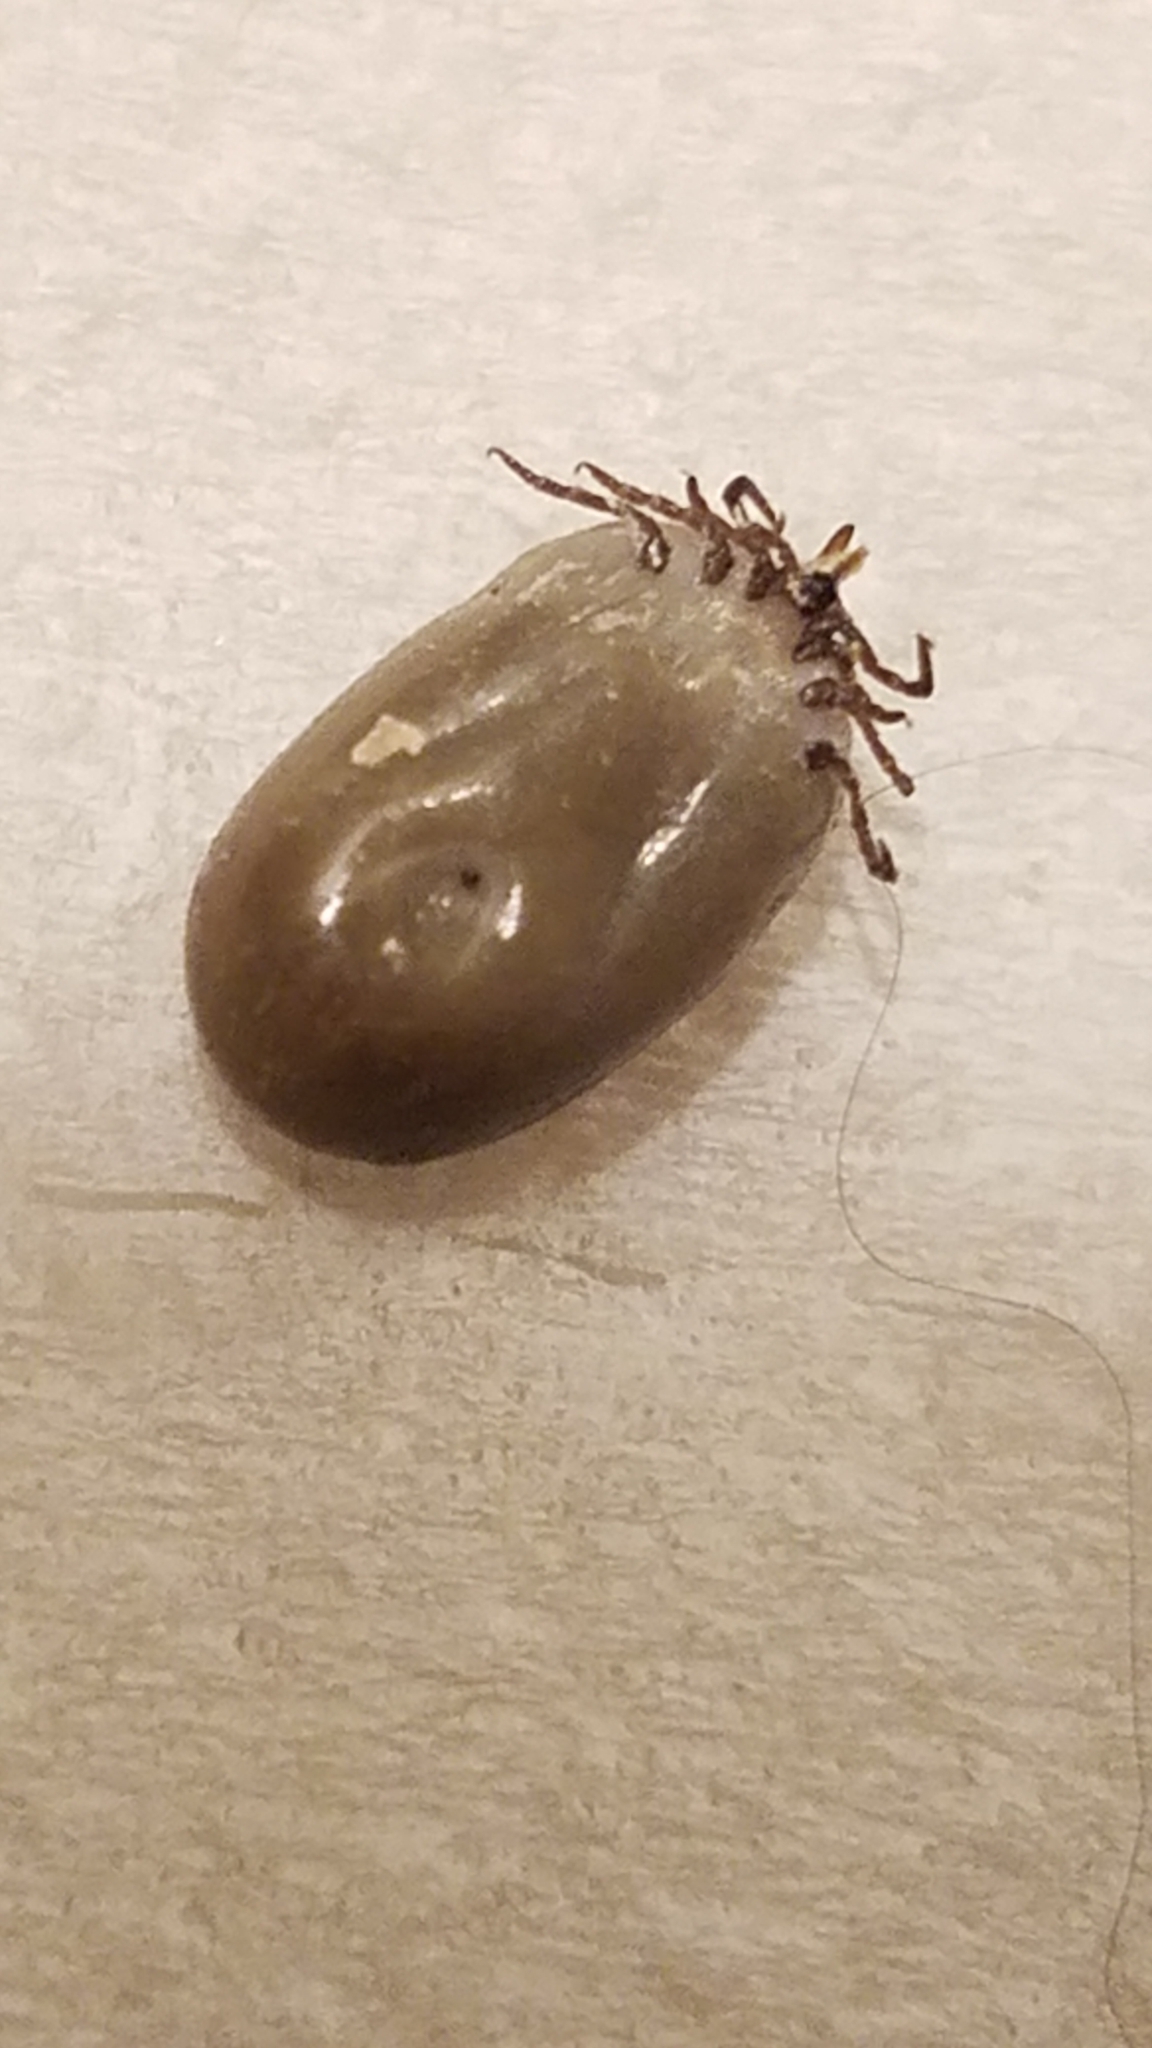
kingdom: Animalia
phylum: Arthropoda
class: Arachnida
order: Ixodida
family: Ixodidae
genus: Ixodes
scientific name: Ixodes scapularis
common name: Black legged tick
